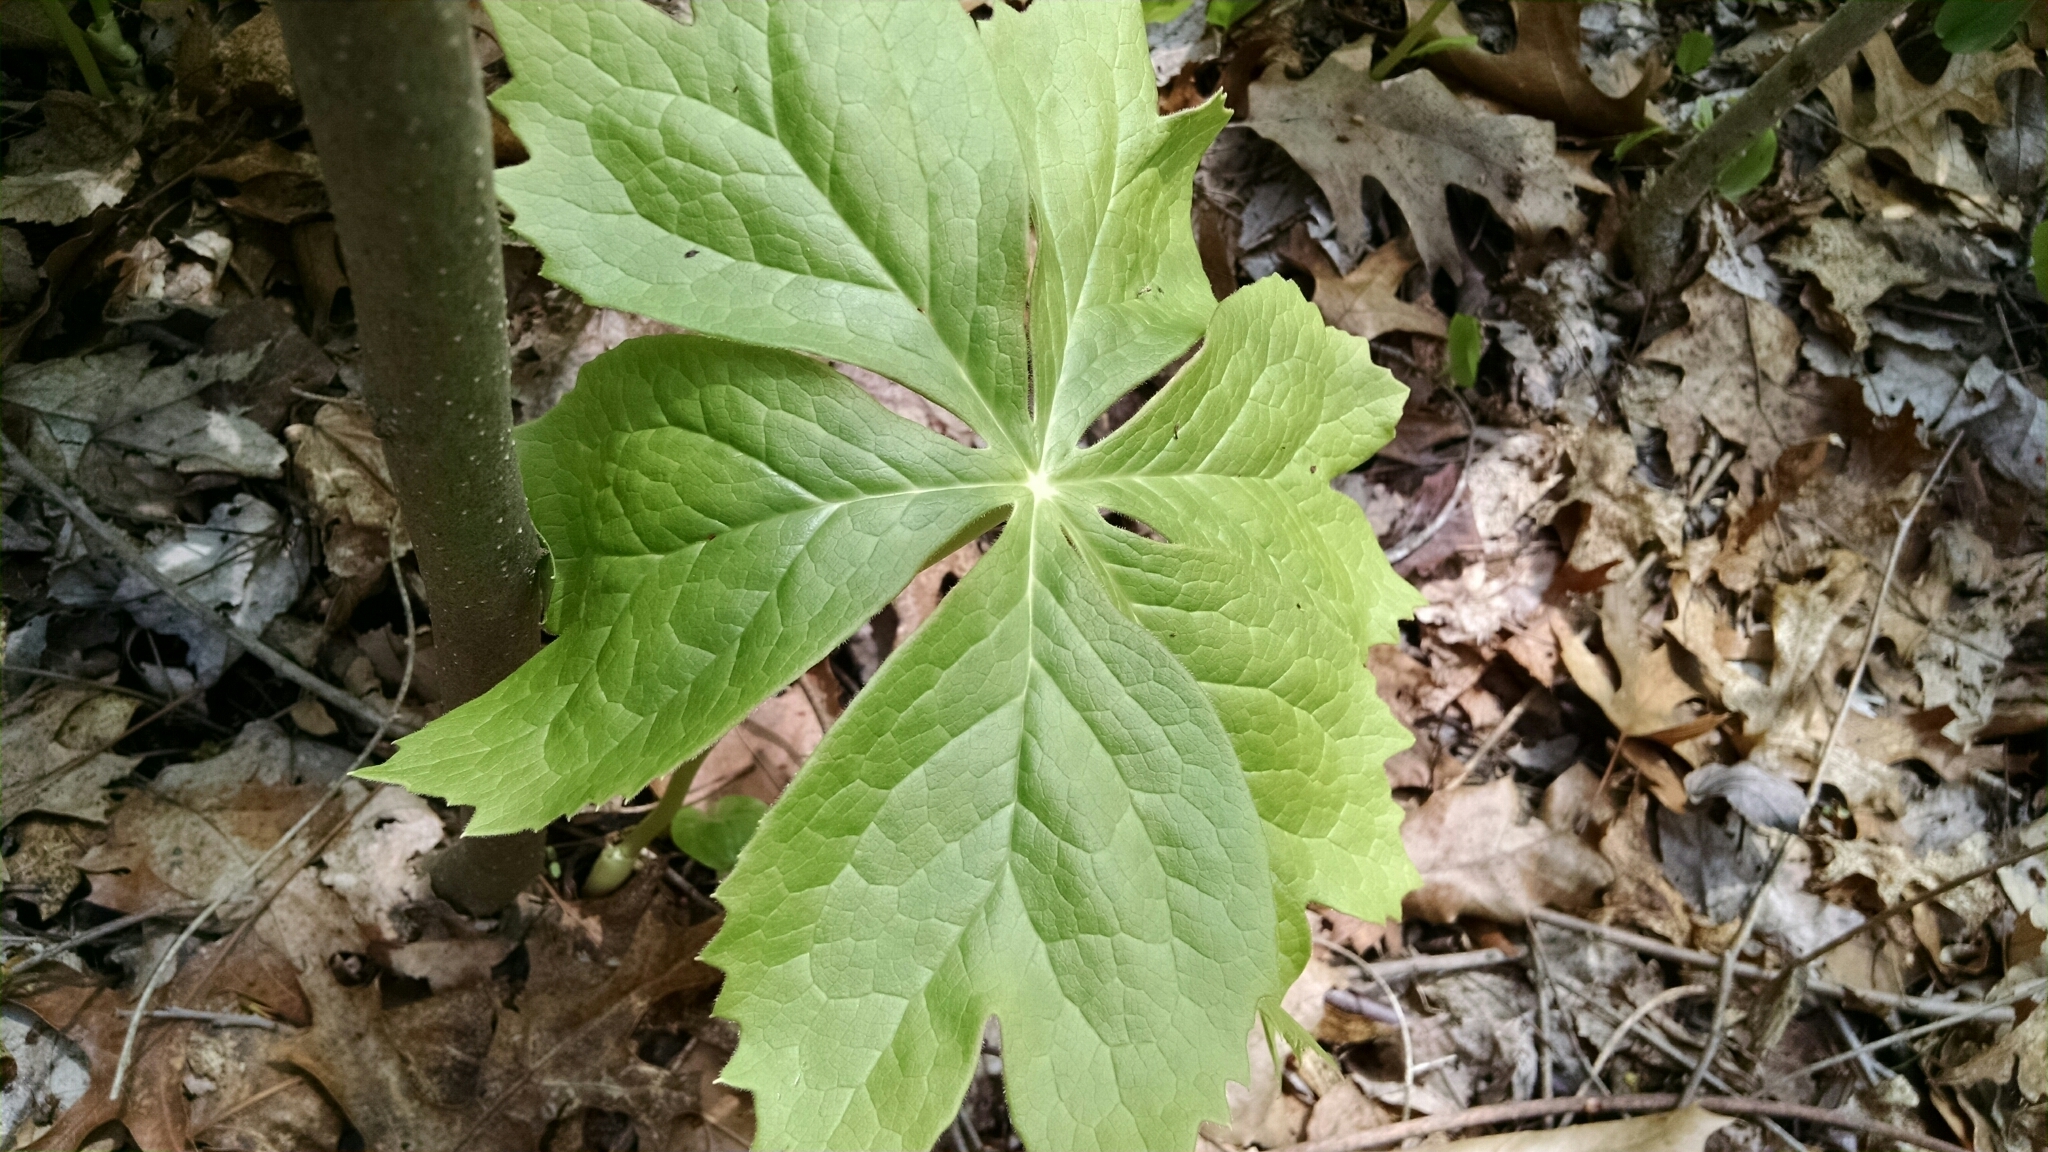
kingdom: Plantae
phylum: Tracheophyta
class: Magnoliopsida
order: Ranunculales
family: Berberidaceae
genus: Podophyllum
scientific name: Podophyllum peltatum
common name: Wild mandrake
